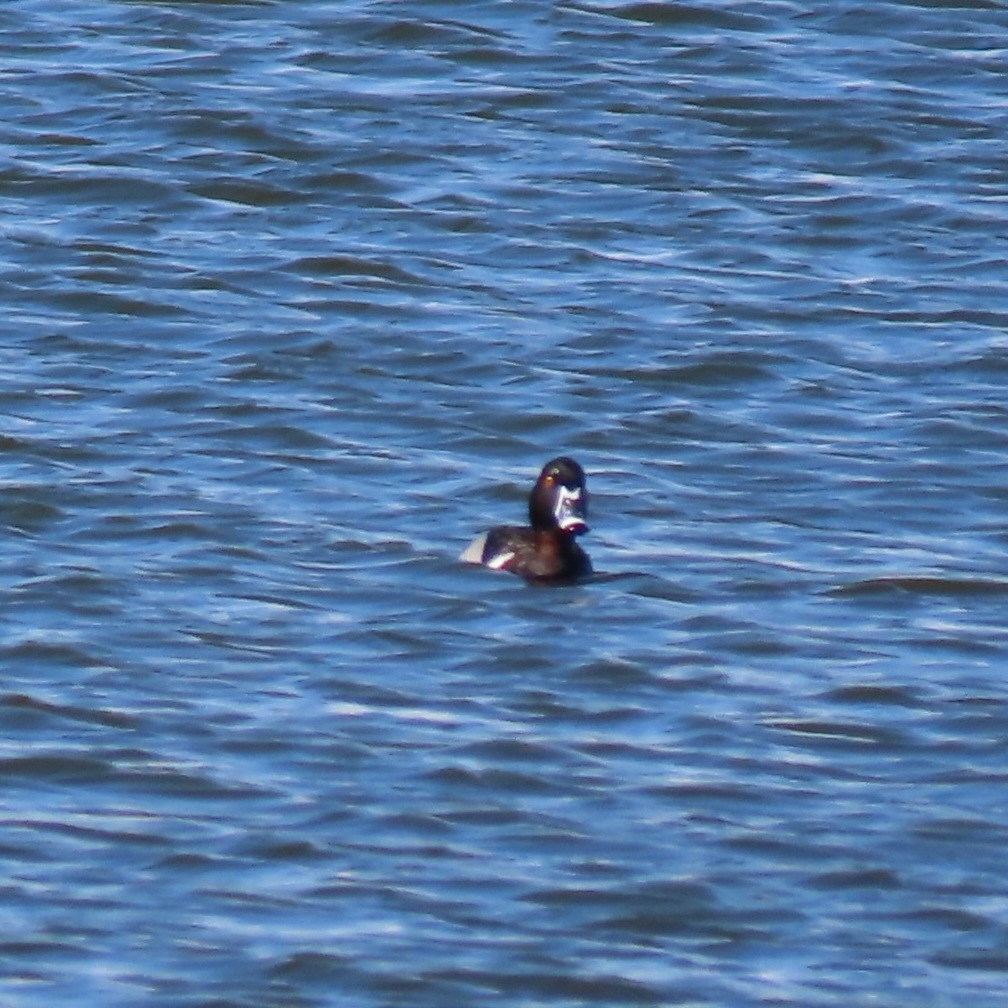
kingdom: Animalia
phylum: Chordata
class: Aves
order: Anseriformes
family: Anatidae
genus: Aythya
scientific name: Aythya collaris
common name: Ring-necked duck
